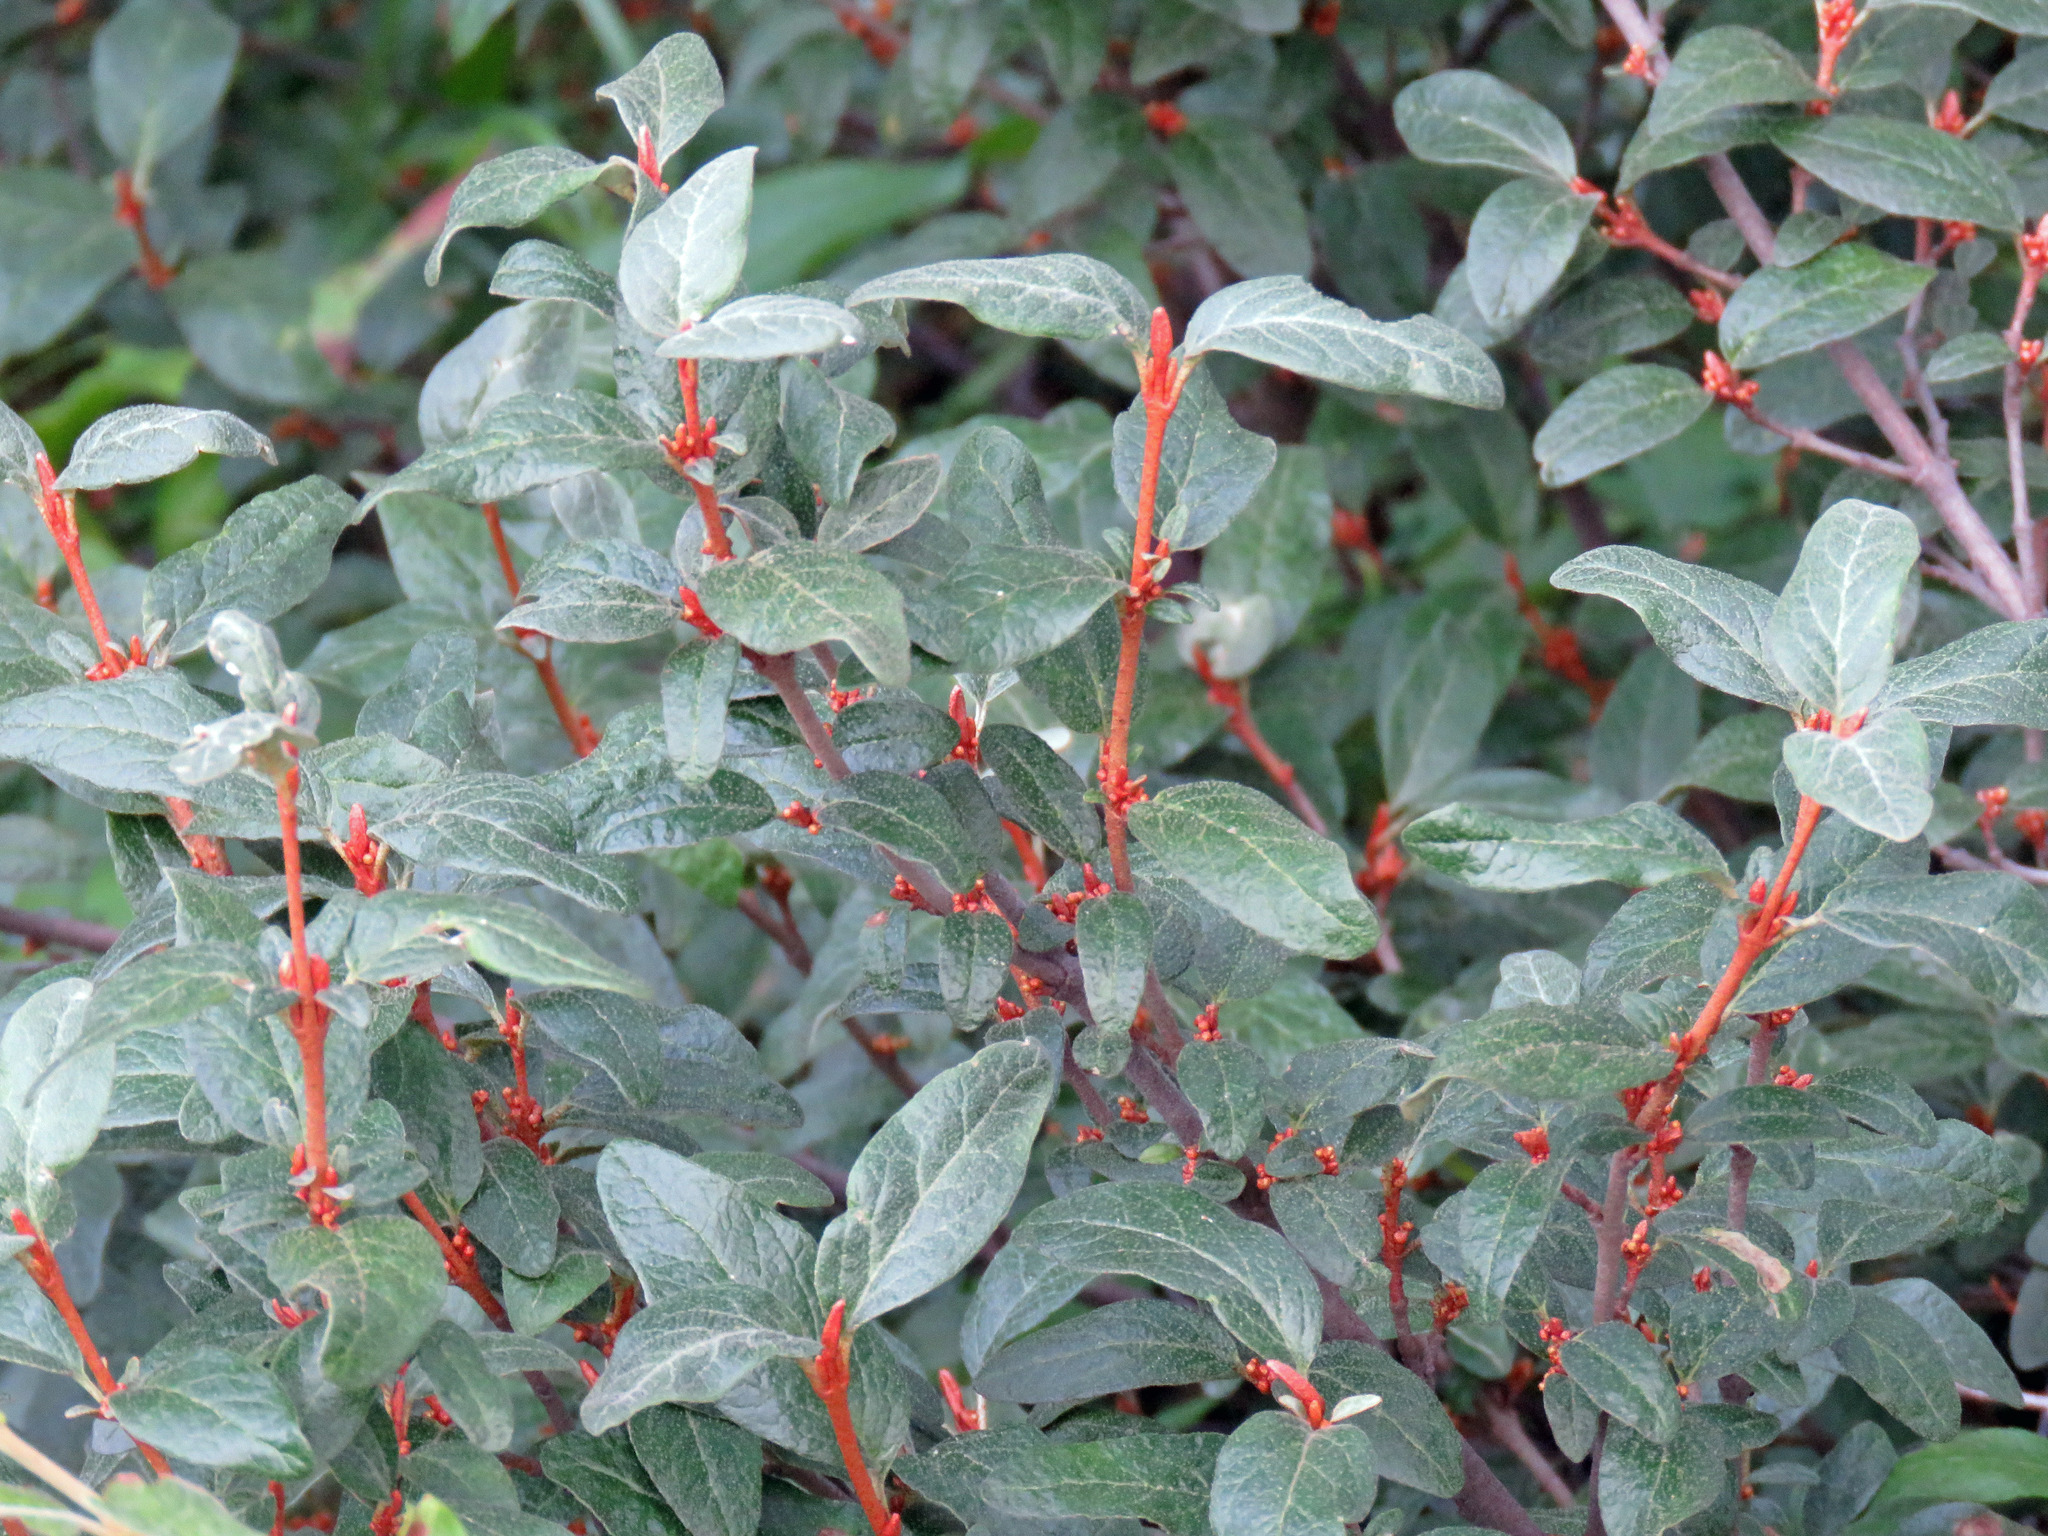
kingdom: Plantae
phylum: Tracheophyta
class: Magnoliopsida
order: Rosales
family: Elaeagnaceae
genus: Shepherdia
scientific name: Shepherdia canadensis
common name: Soapberry
